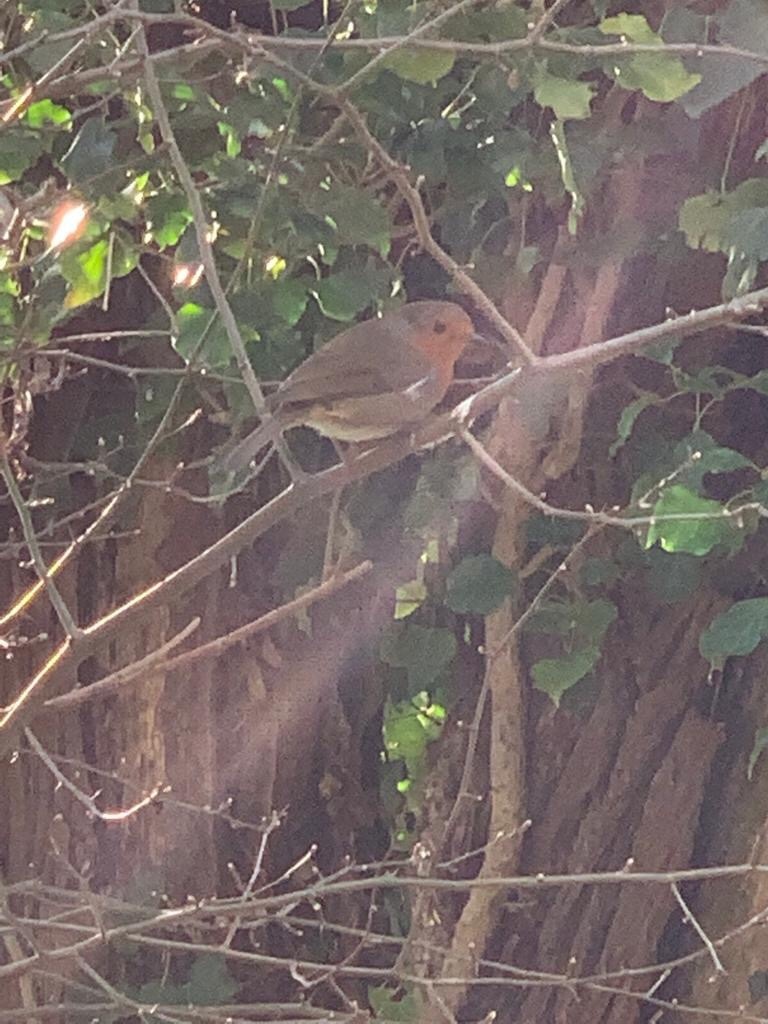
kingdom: Animalia
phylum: Chordata
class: Aves
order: Passeriformes
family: Muscicapidae
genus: Erithacus
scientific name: Erithacus rubecula
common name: European robin
